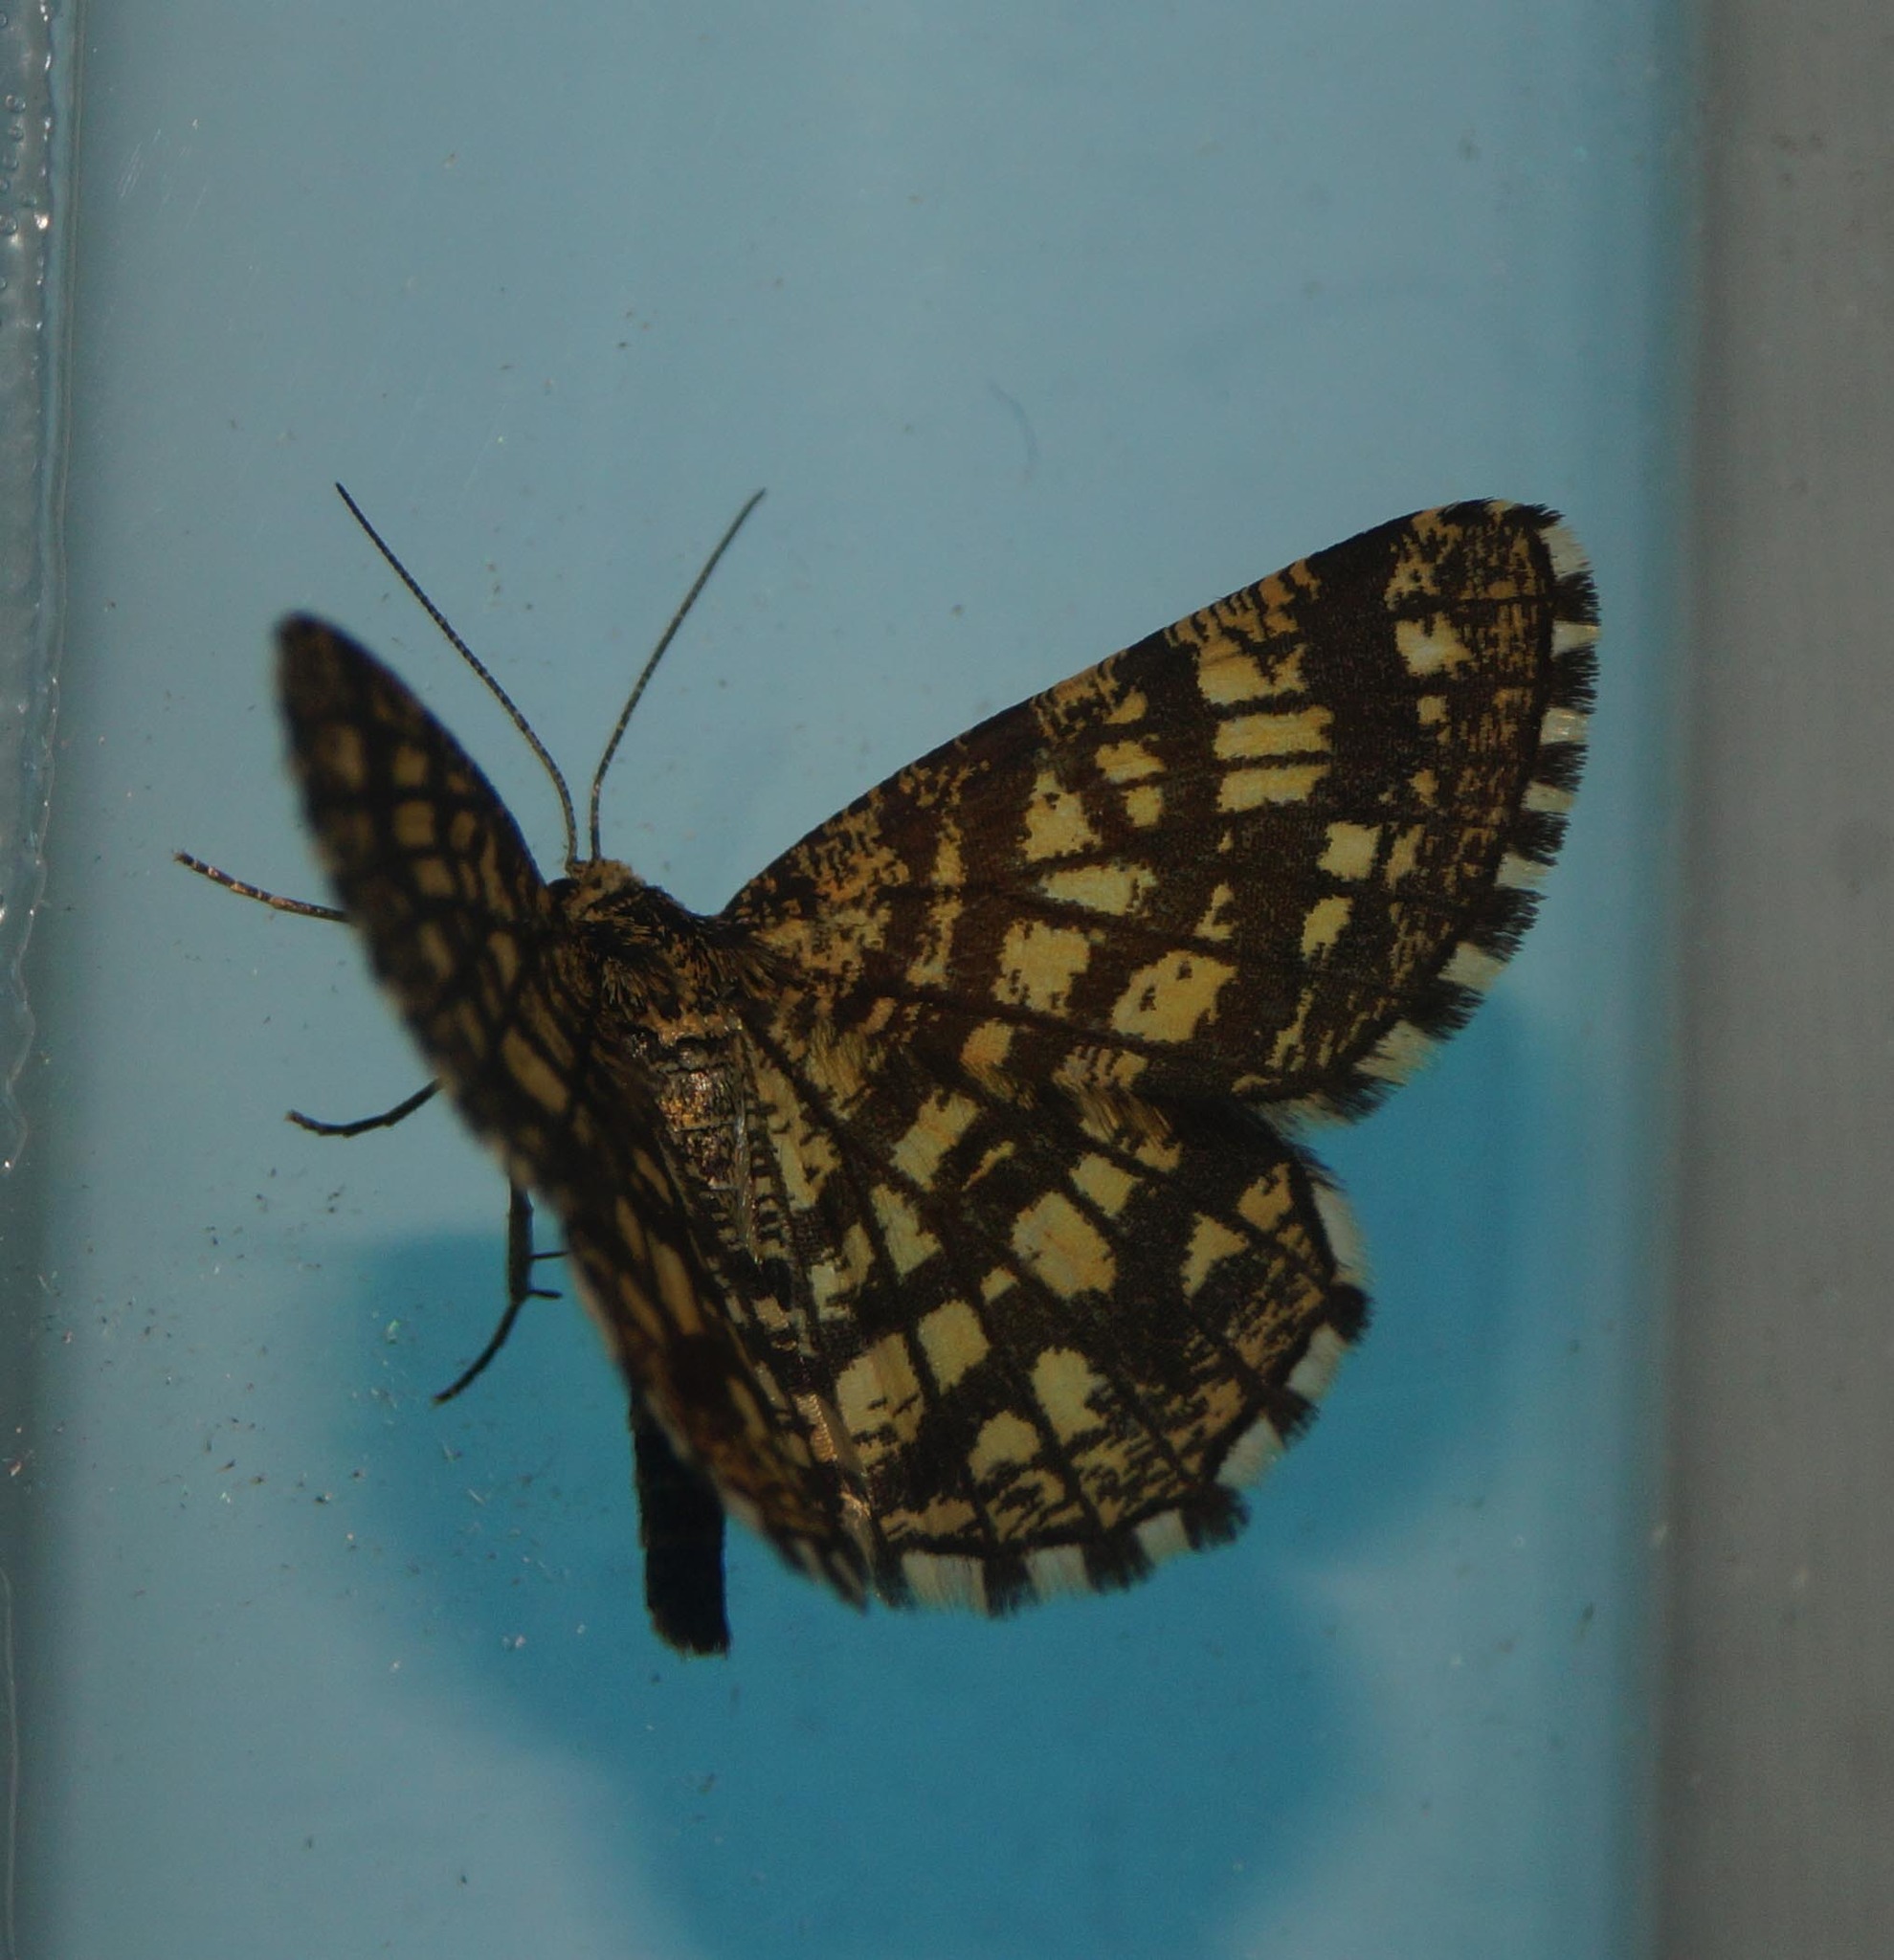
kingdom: Animalia
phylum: Arthropoda
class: Insecta
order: Lepidoptera
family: Geometridae
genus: Chiasmia
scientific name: Chiasmia clathrata
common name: Latticed heath
